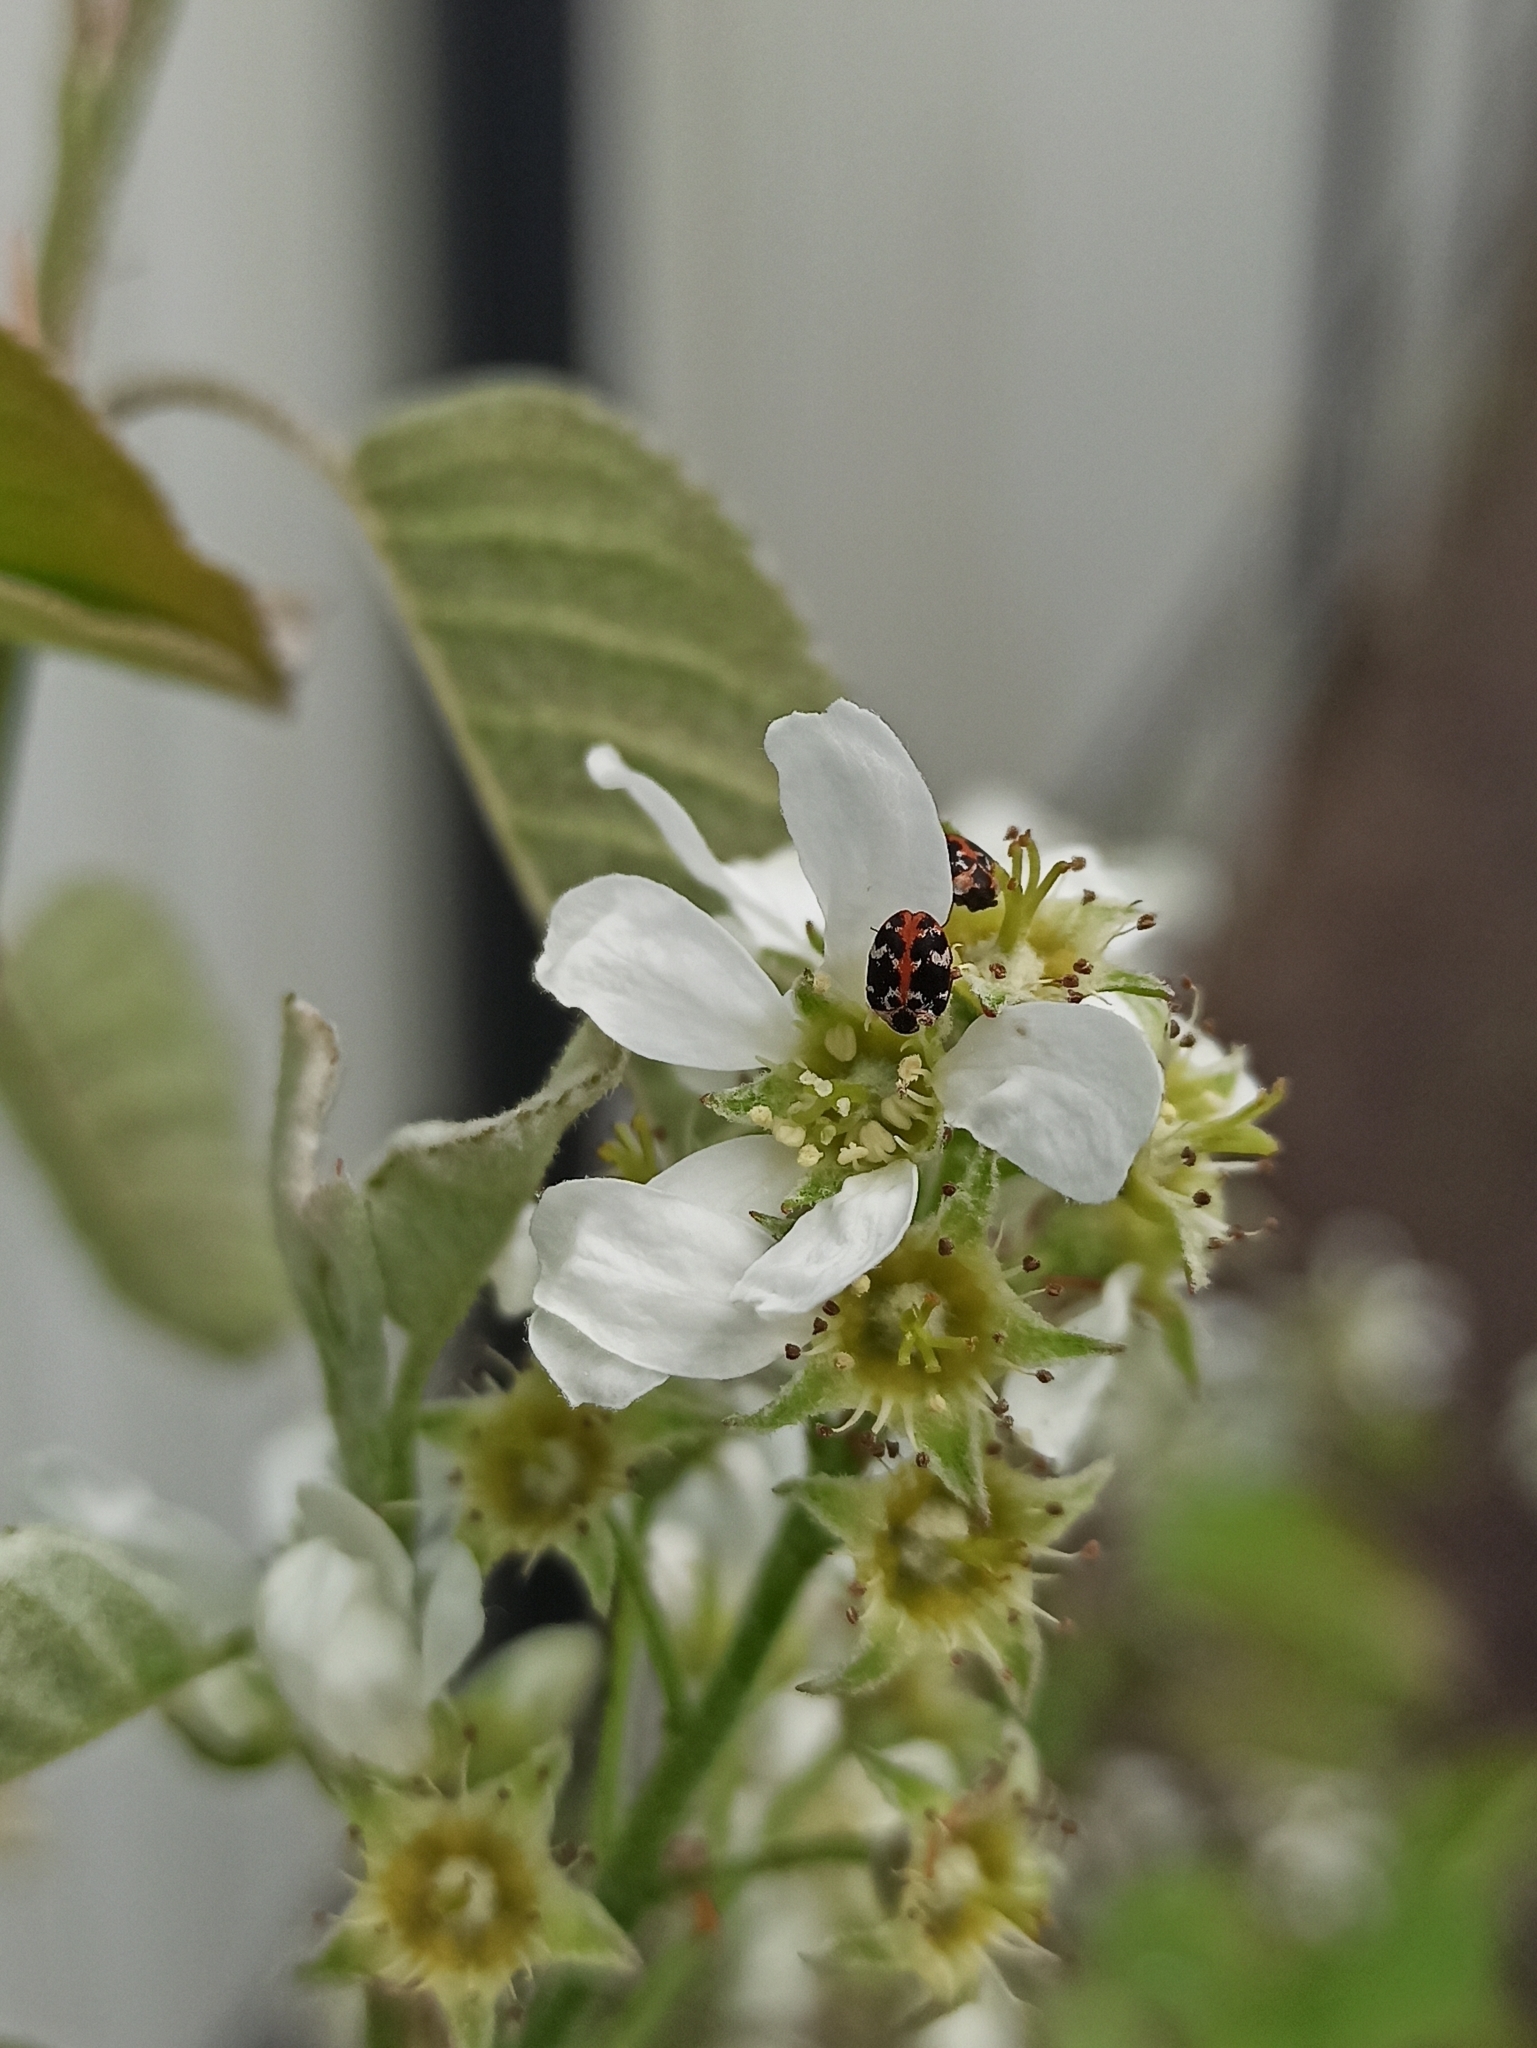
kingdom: Animalia
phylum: Arthropoda
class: Insecta
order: Coleoptera
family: Dermestidae
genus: Anthrenus
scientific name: Anthrenus scrophulariae
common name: Buffalo carpet beetle
